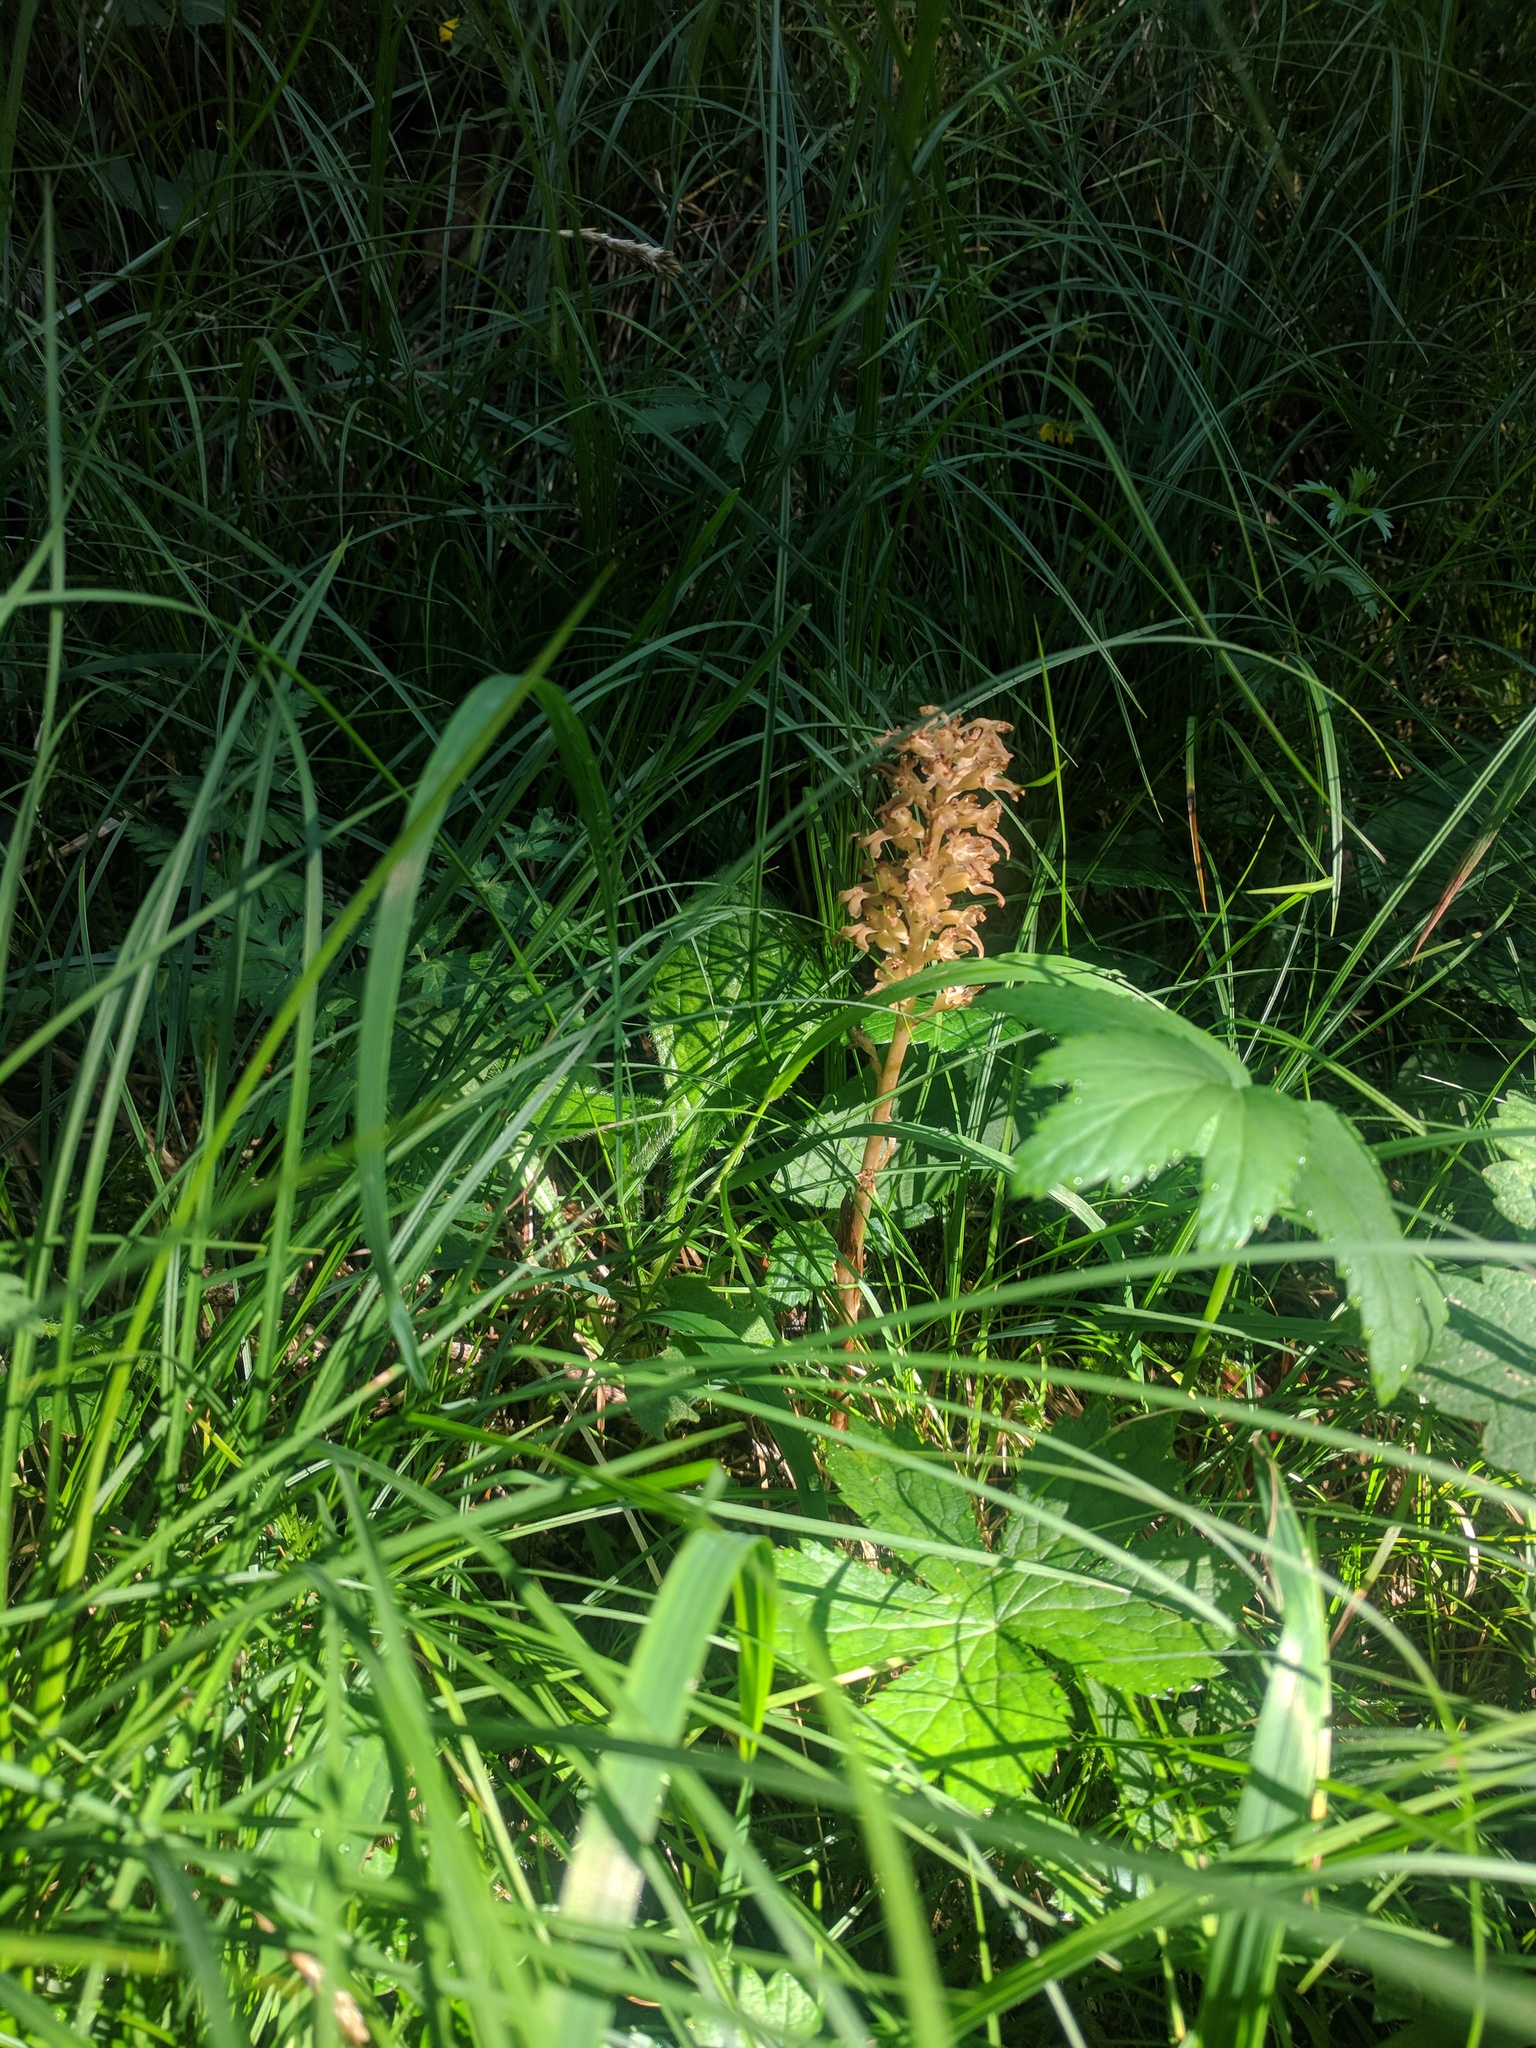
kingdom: Plantae
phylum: Tracheophyta
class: Liliopsida
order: Asparagales
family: Orchidaceae
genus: Neottia
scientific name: Neottia nidus-avis
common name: Bird's-nest orchid
